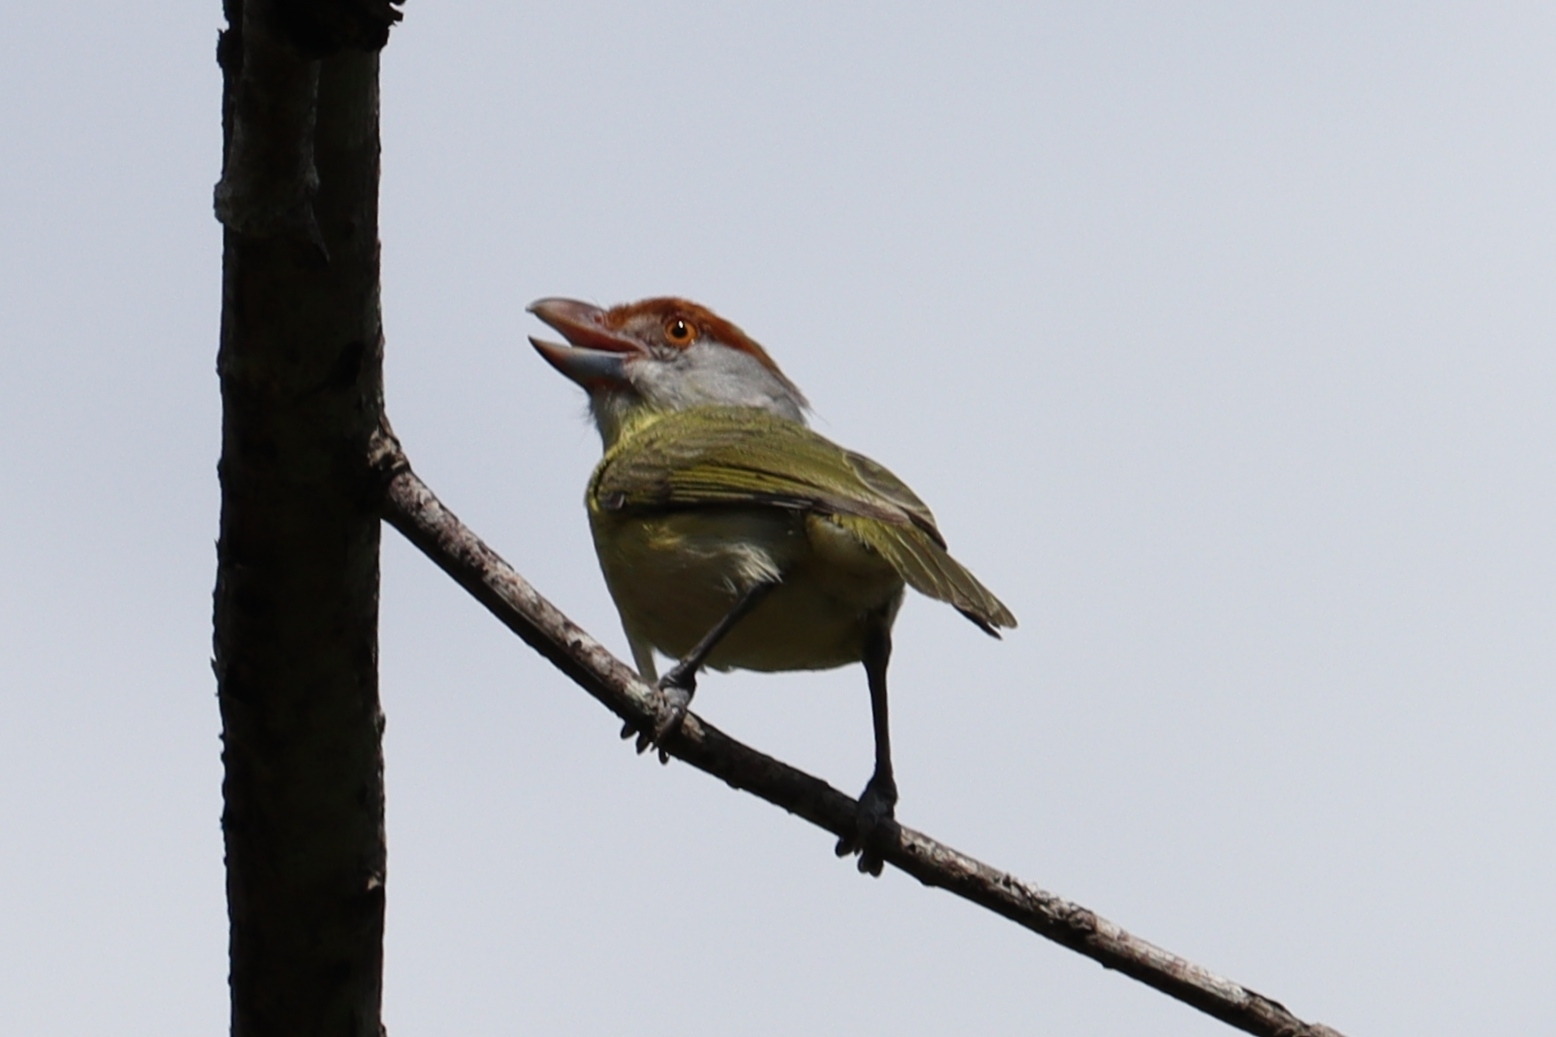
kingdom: Animalia
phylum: Chordata
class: Aves
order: Passeriformes
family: Vireonidae
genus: Cyclarhis
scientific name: Cyclarhis gujanensis
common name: Rufous-browed peppershrike
